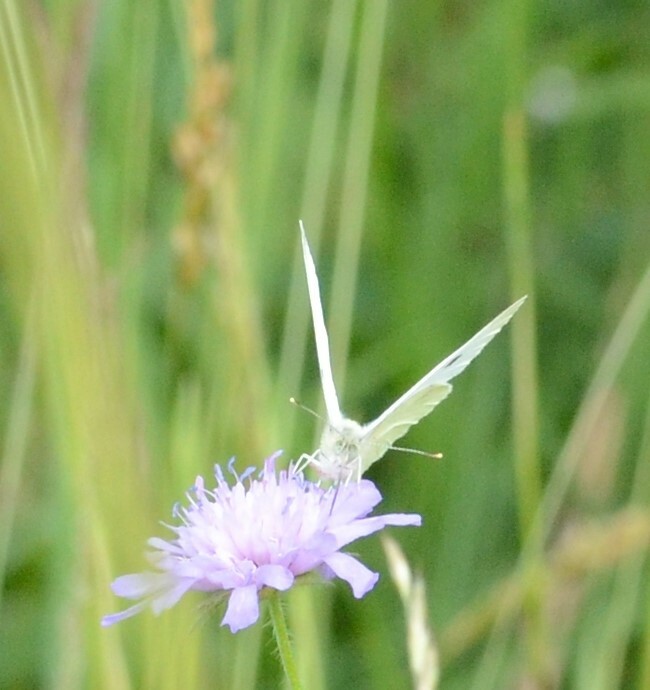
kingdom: Animalia
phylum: Arthropoda
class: Insecta
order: Lepidoptera
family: Pieridae
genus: Pieris
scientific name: Pieris
